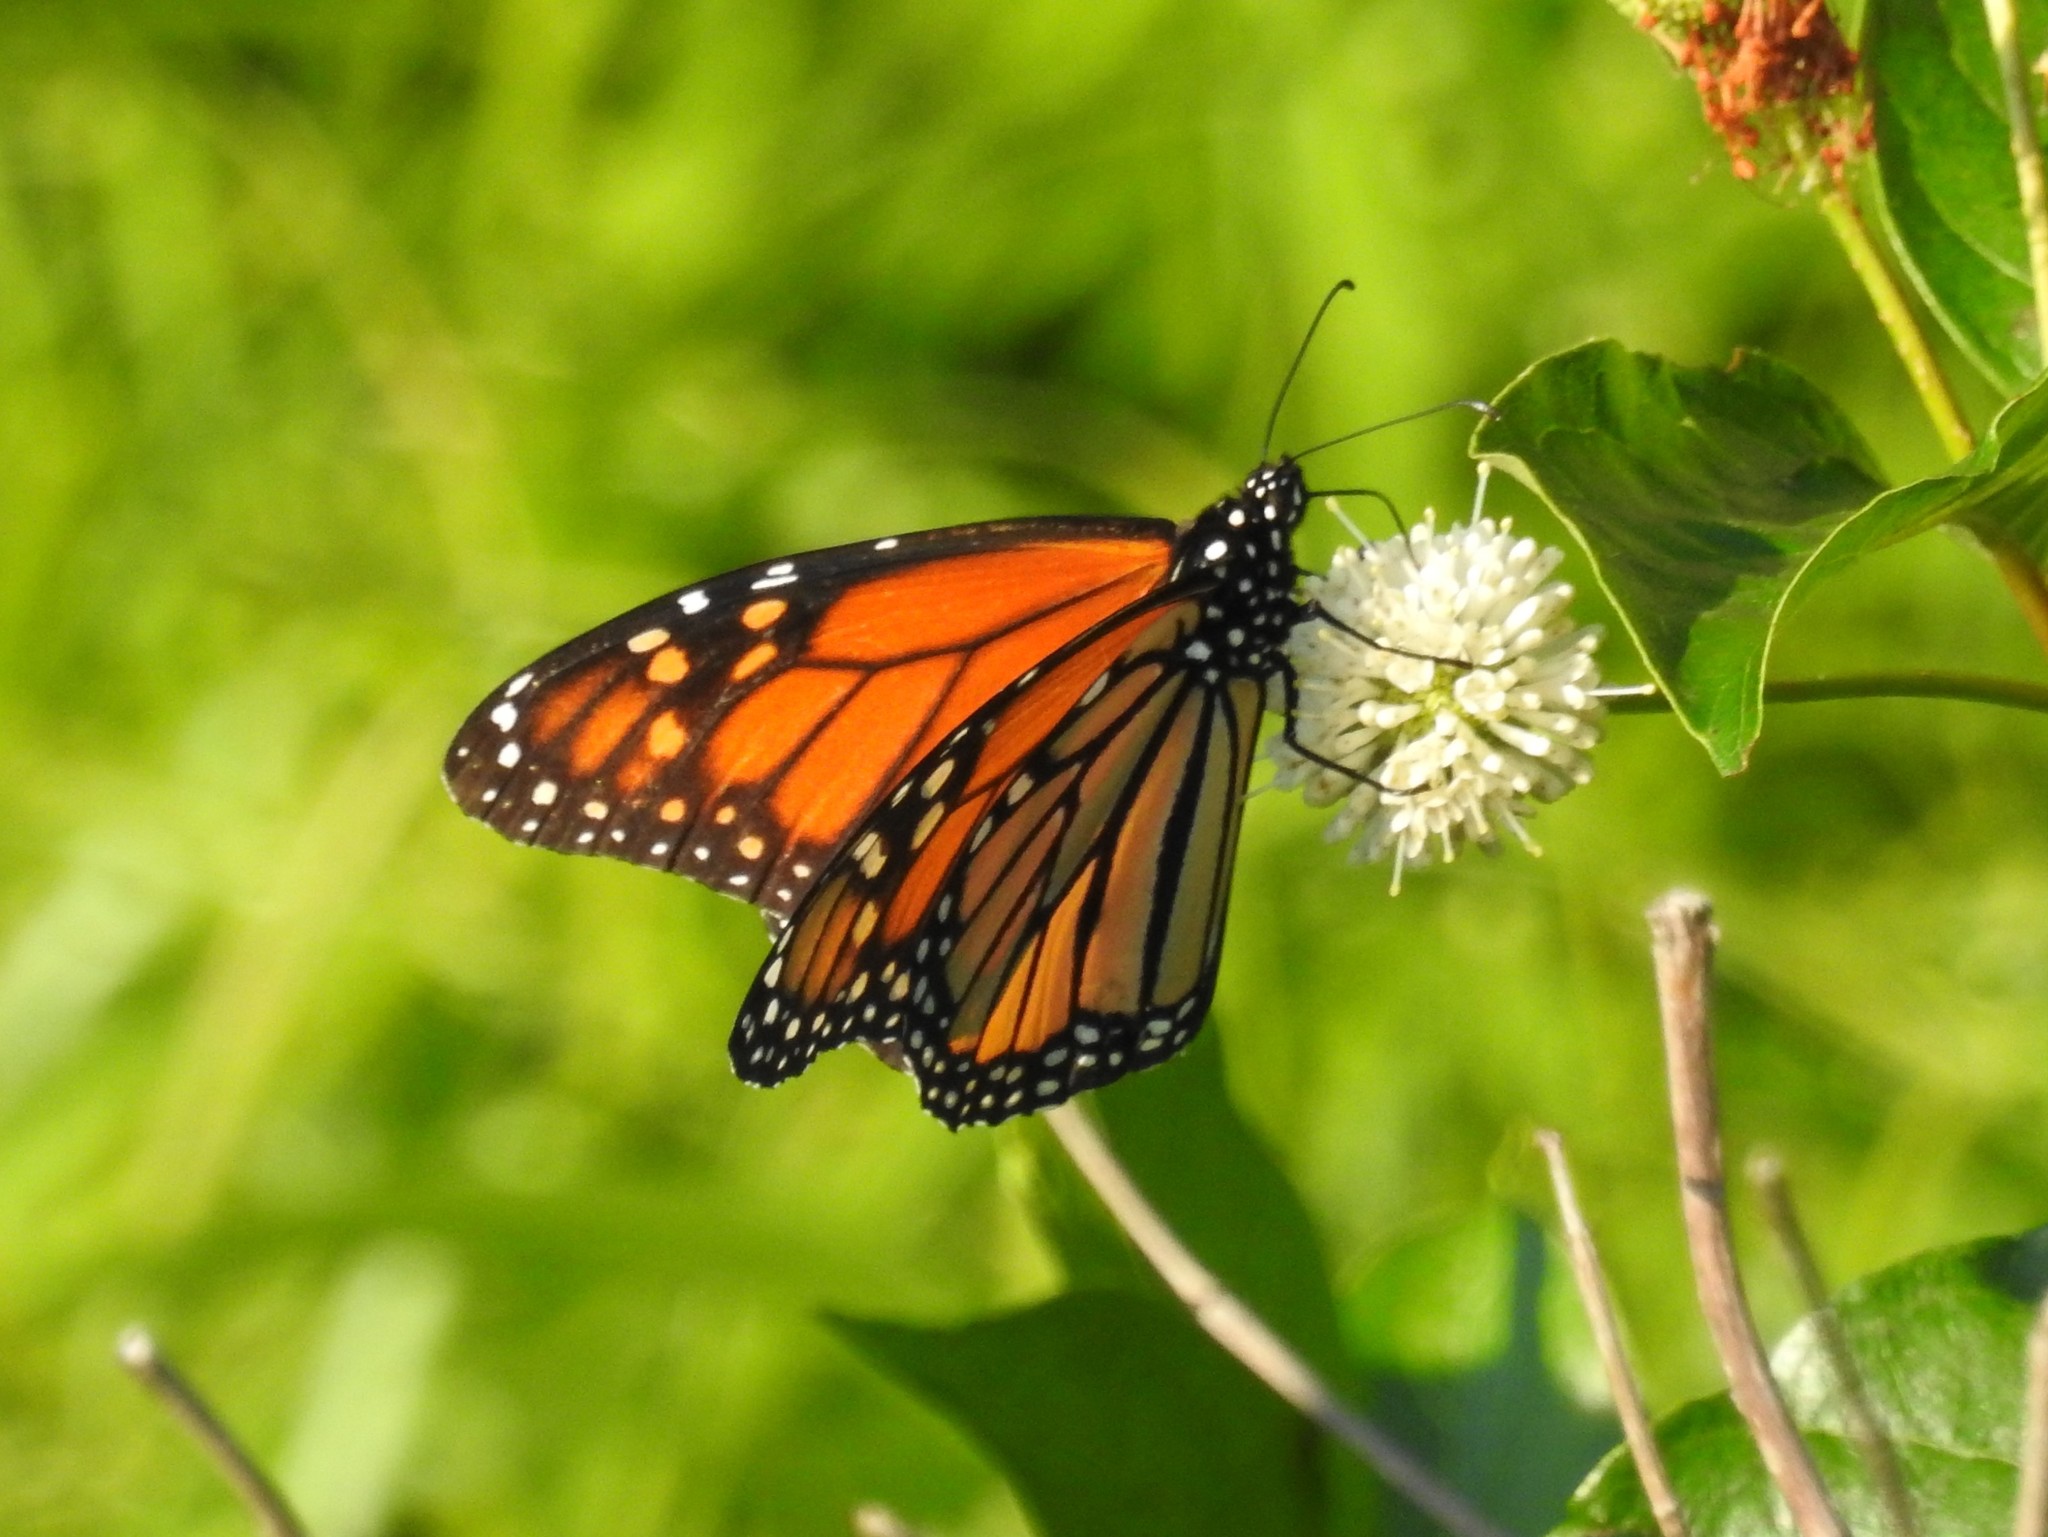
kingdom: Animalia
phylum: Arthropoda
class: Insecta
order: Lepidoptera
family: Nymphalidae
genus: Danaus
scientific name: Danaus plexippus
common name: Monarch
